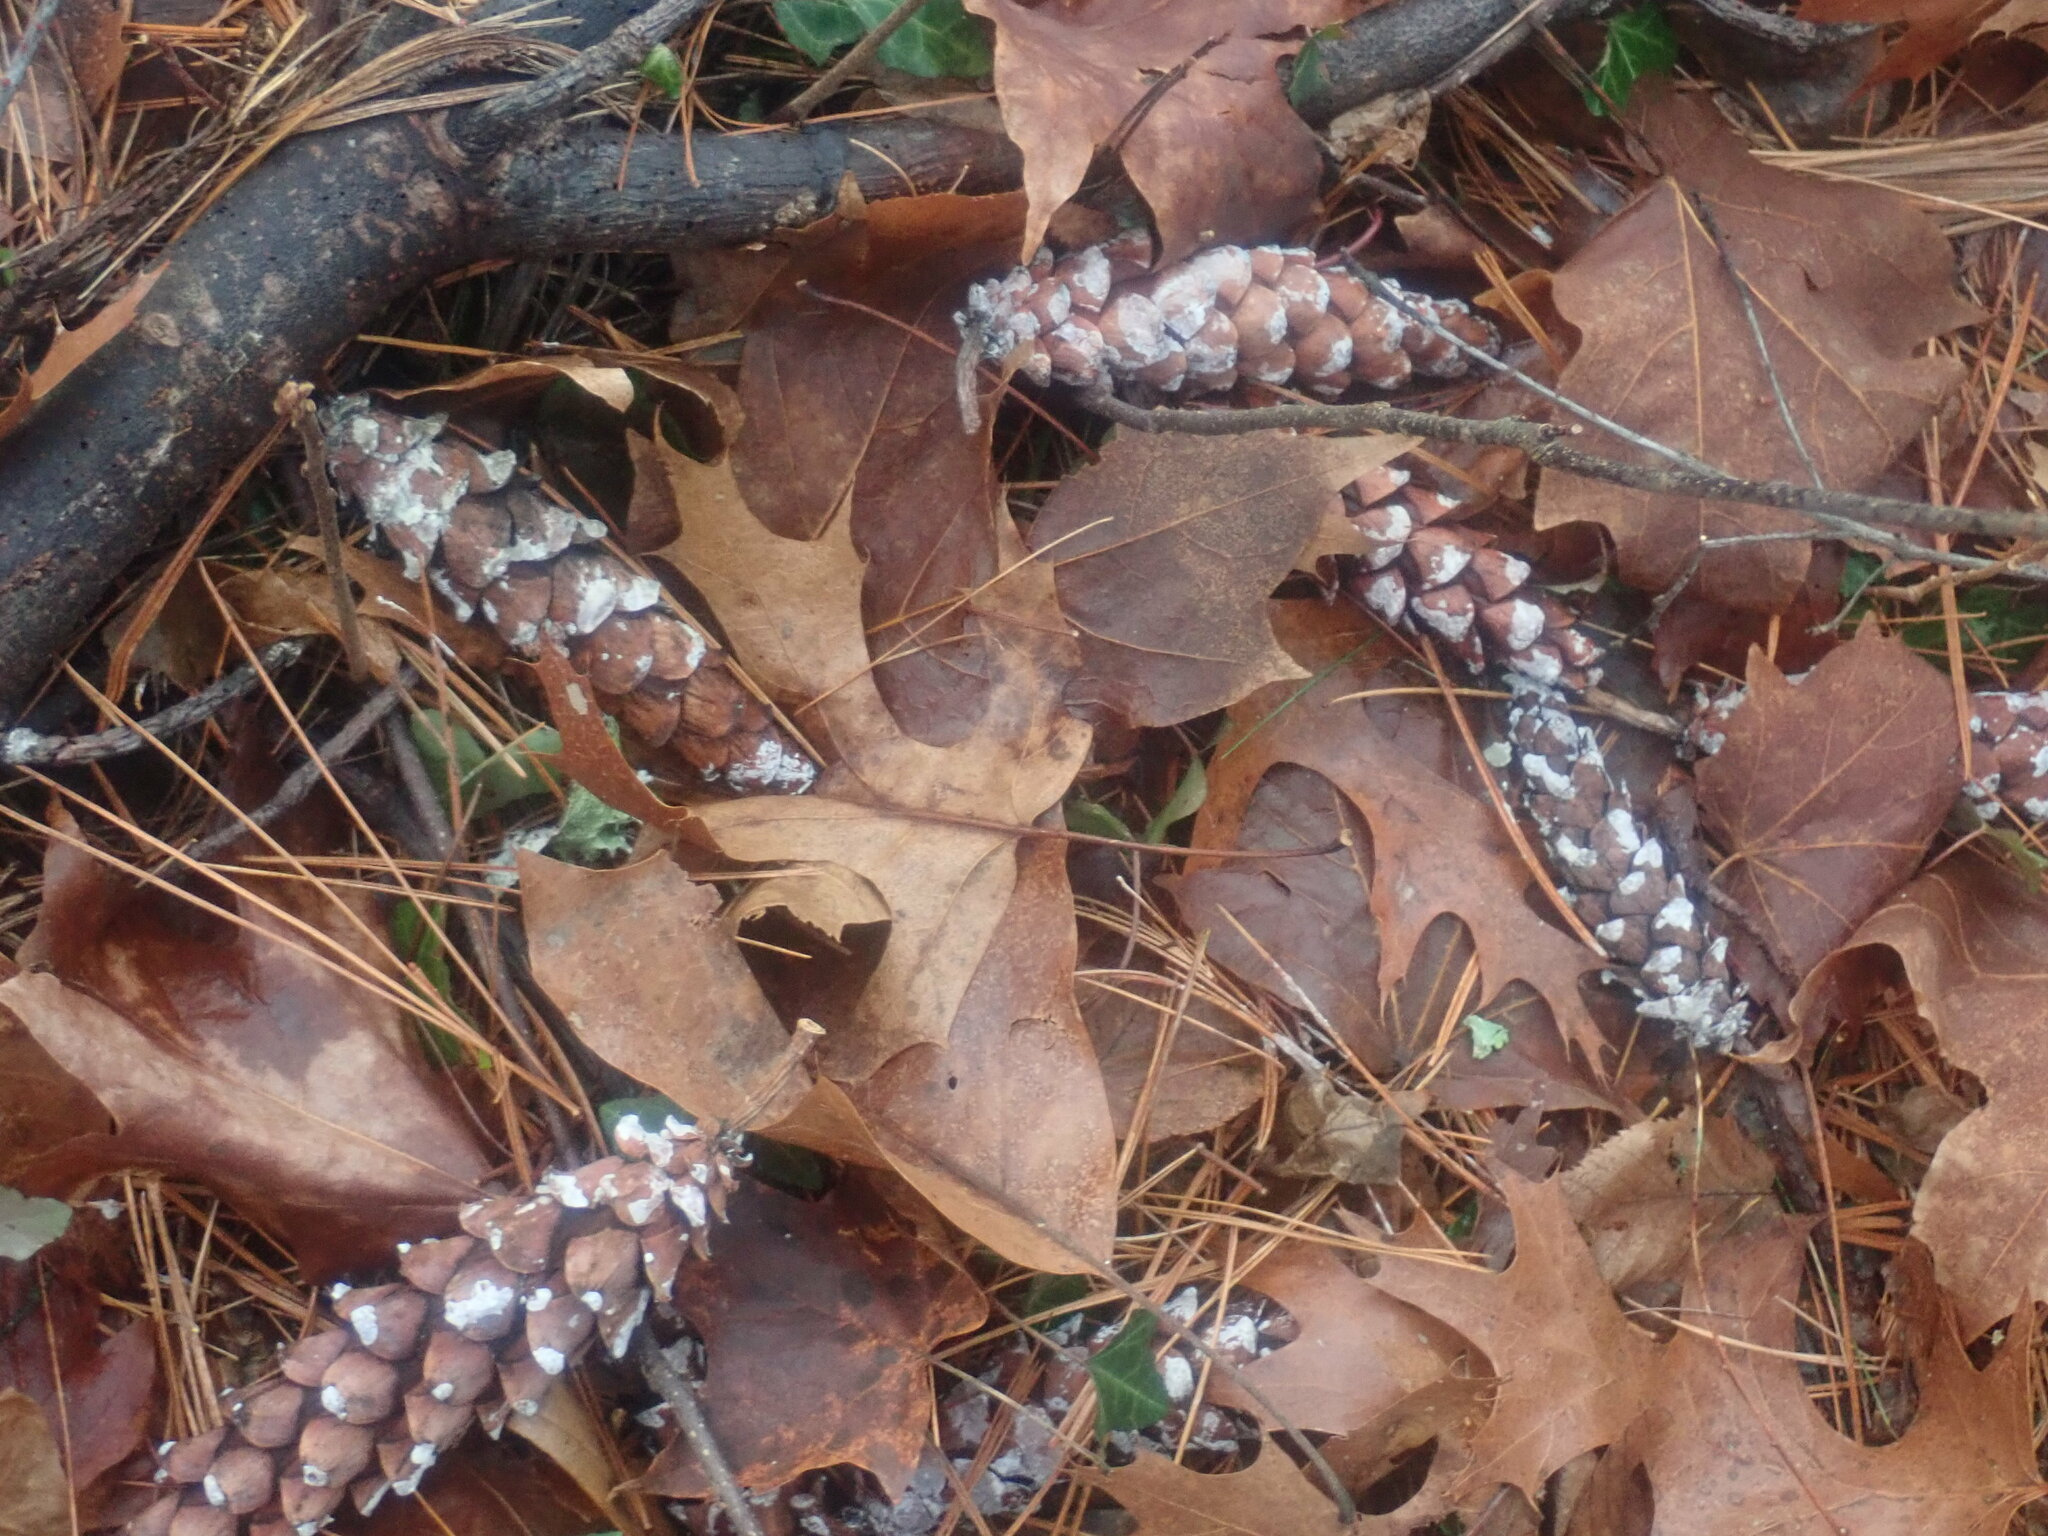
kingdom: Plantae
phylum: Tracheophyta
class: Pinopsida
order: Pinales
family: Pinaceae
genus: Pinus
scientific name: Pinus strobus
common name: Weymouth pine
